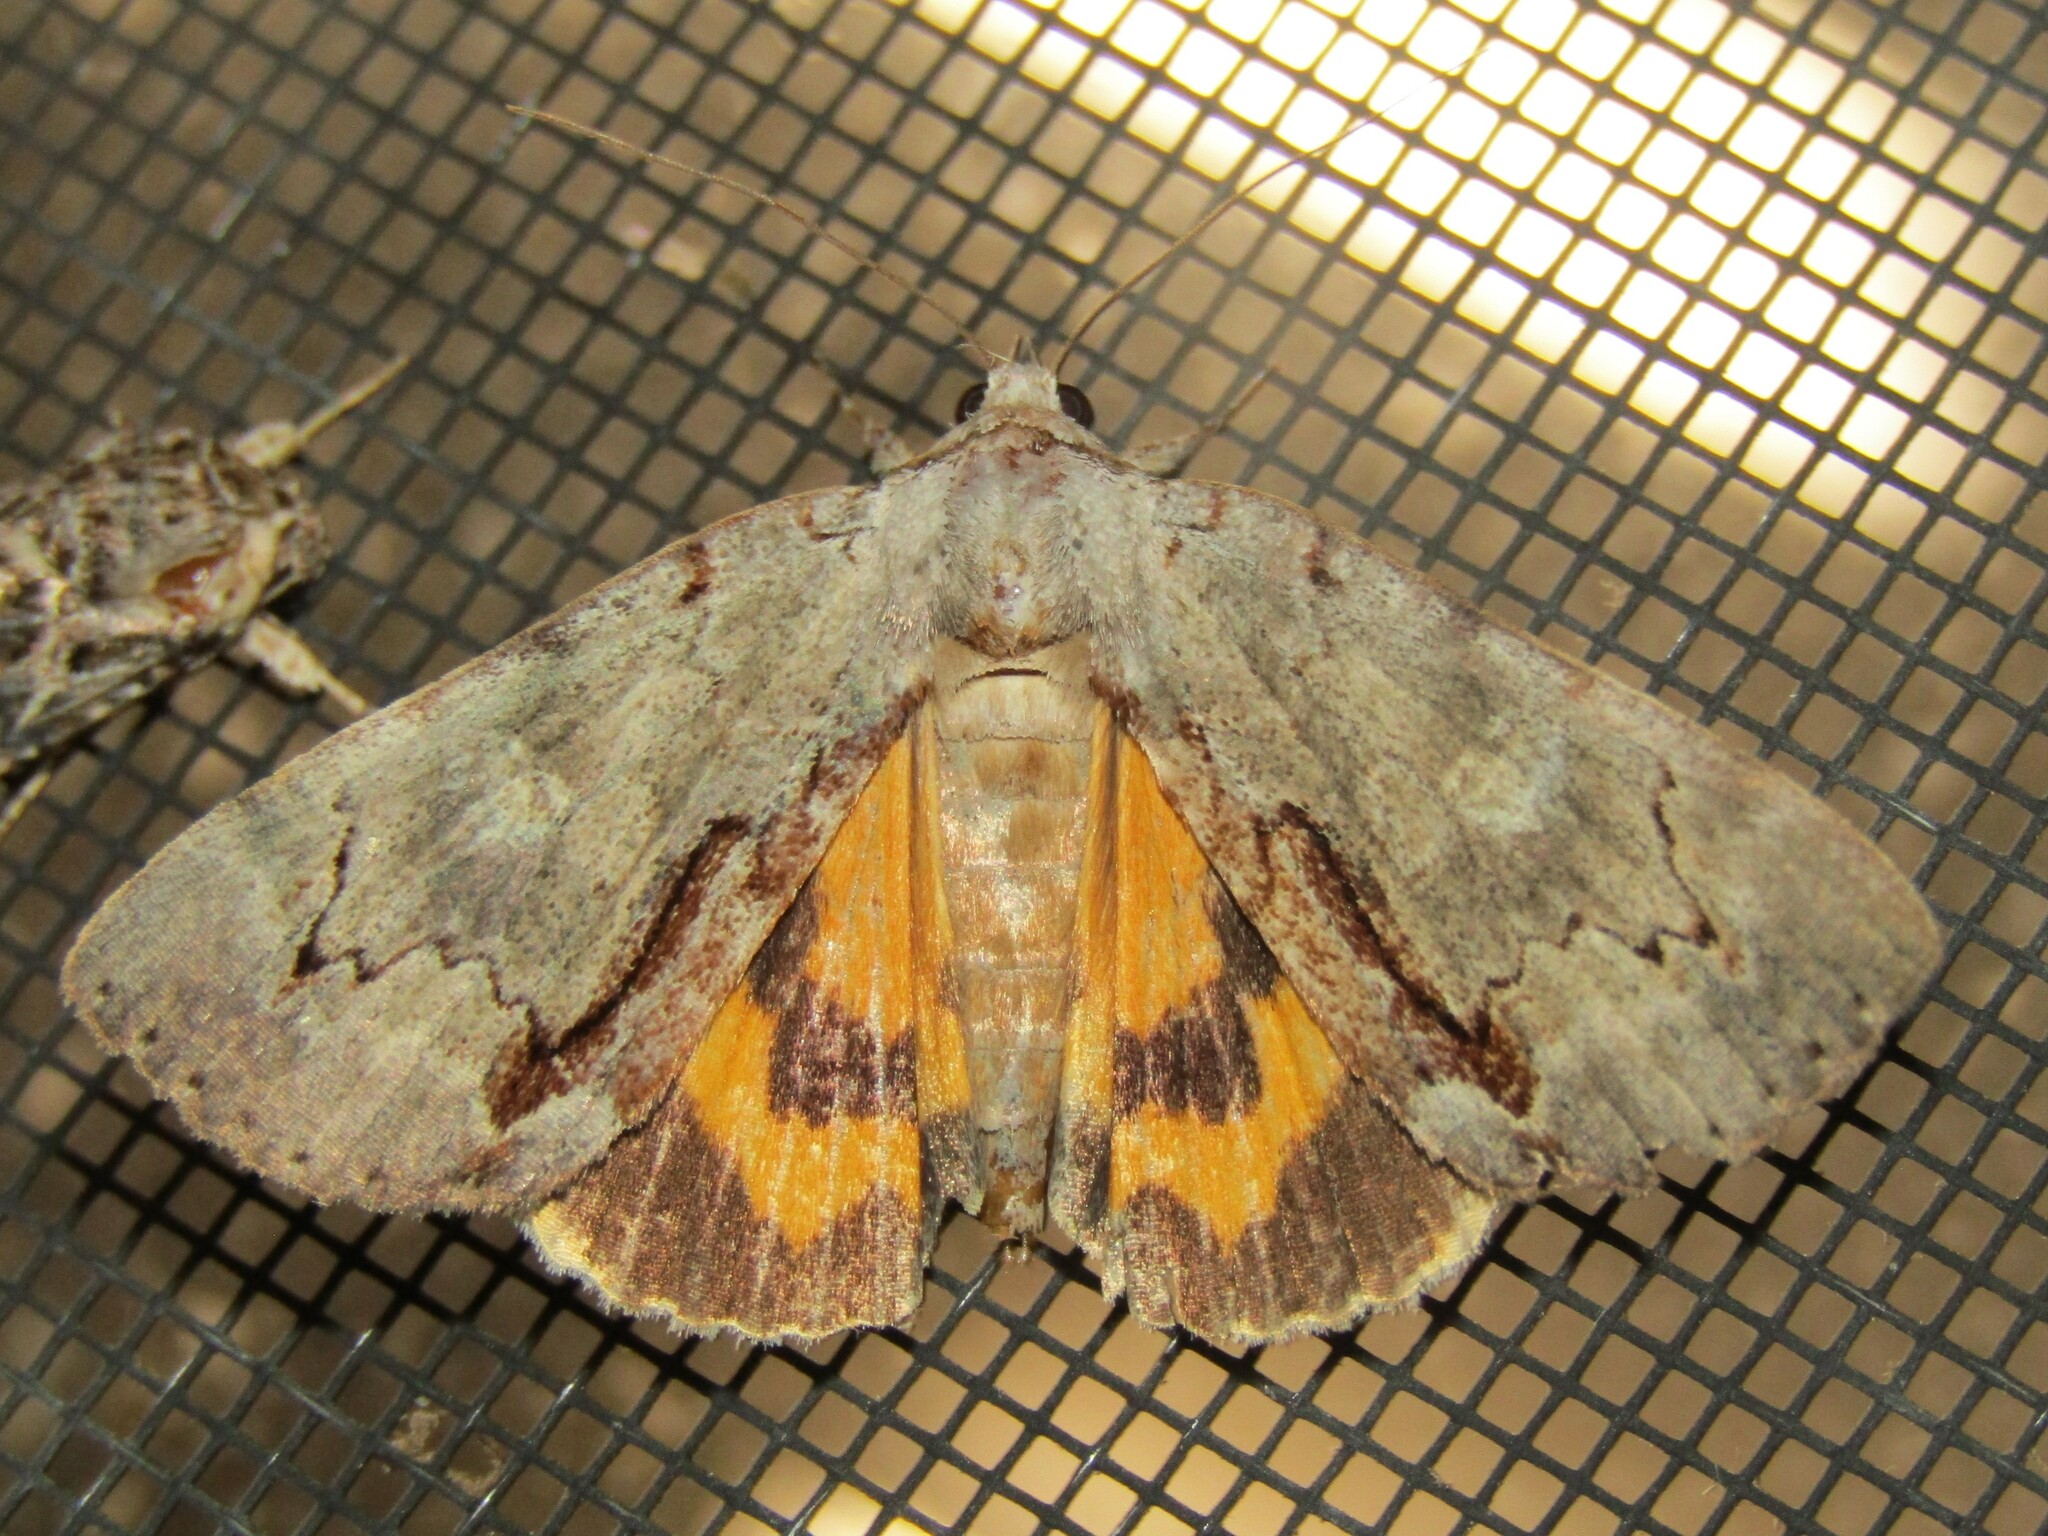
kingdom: Animalia
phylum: Arthropoda
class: Insecta
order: Lepidoptera
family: Erebidae
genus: Catocala
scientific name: Catocala grynea
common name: Woody underwing
